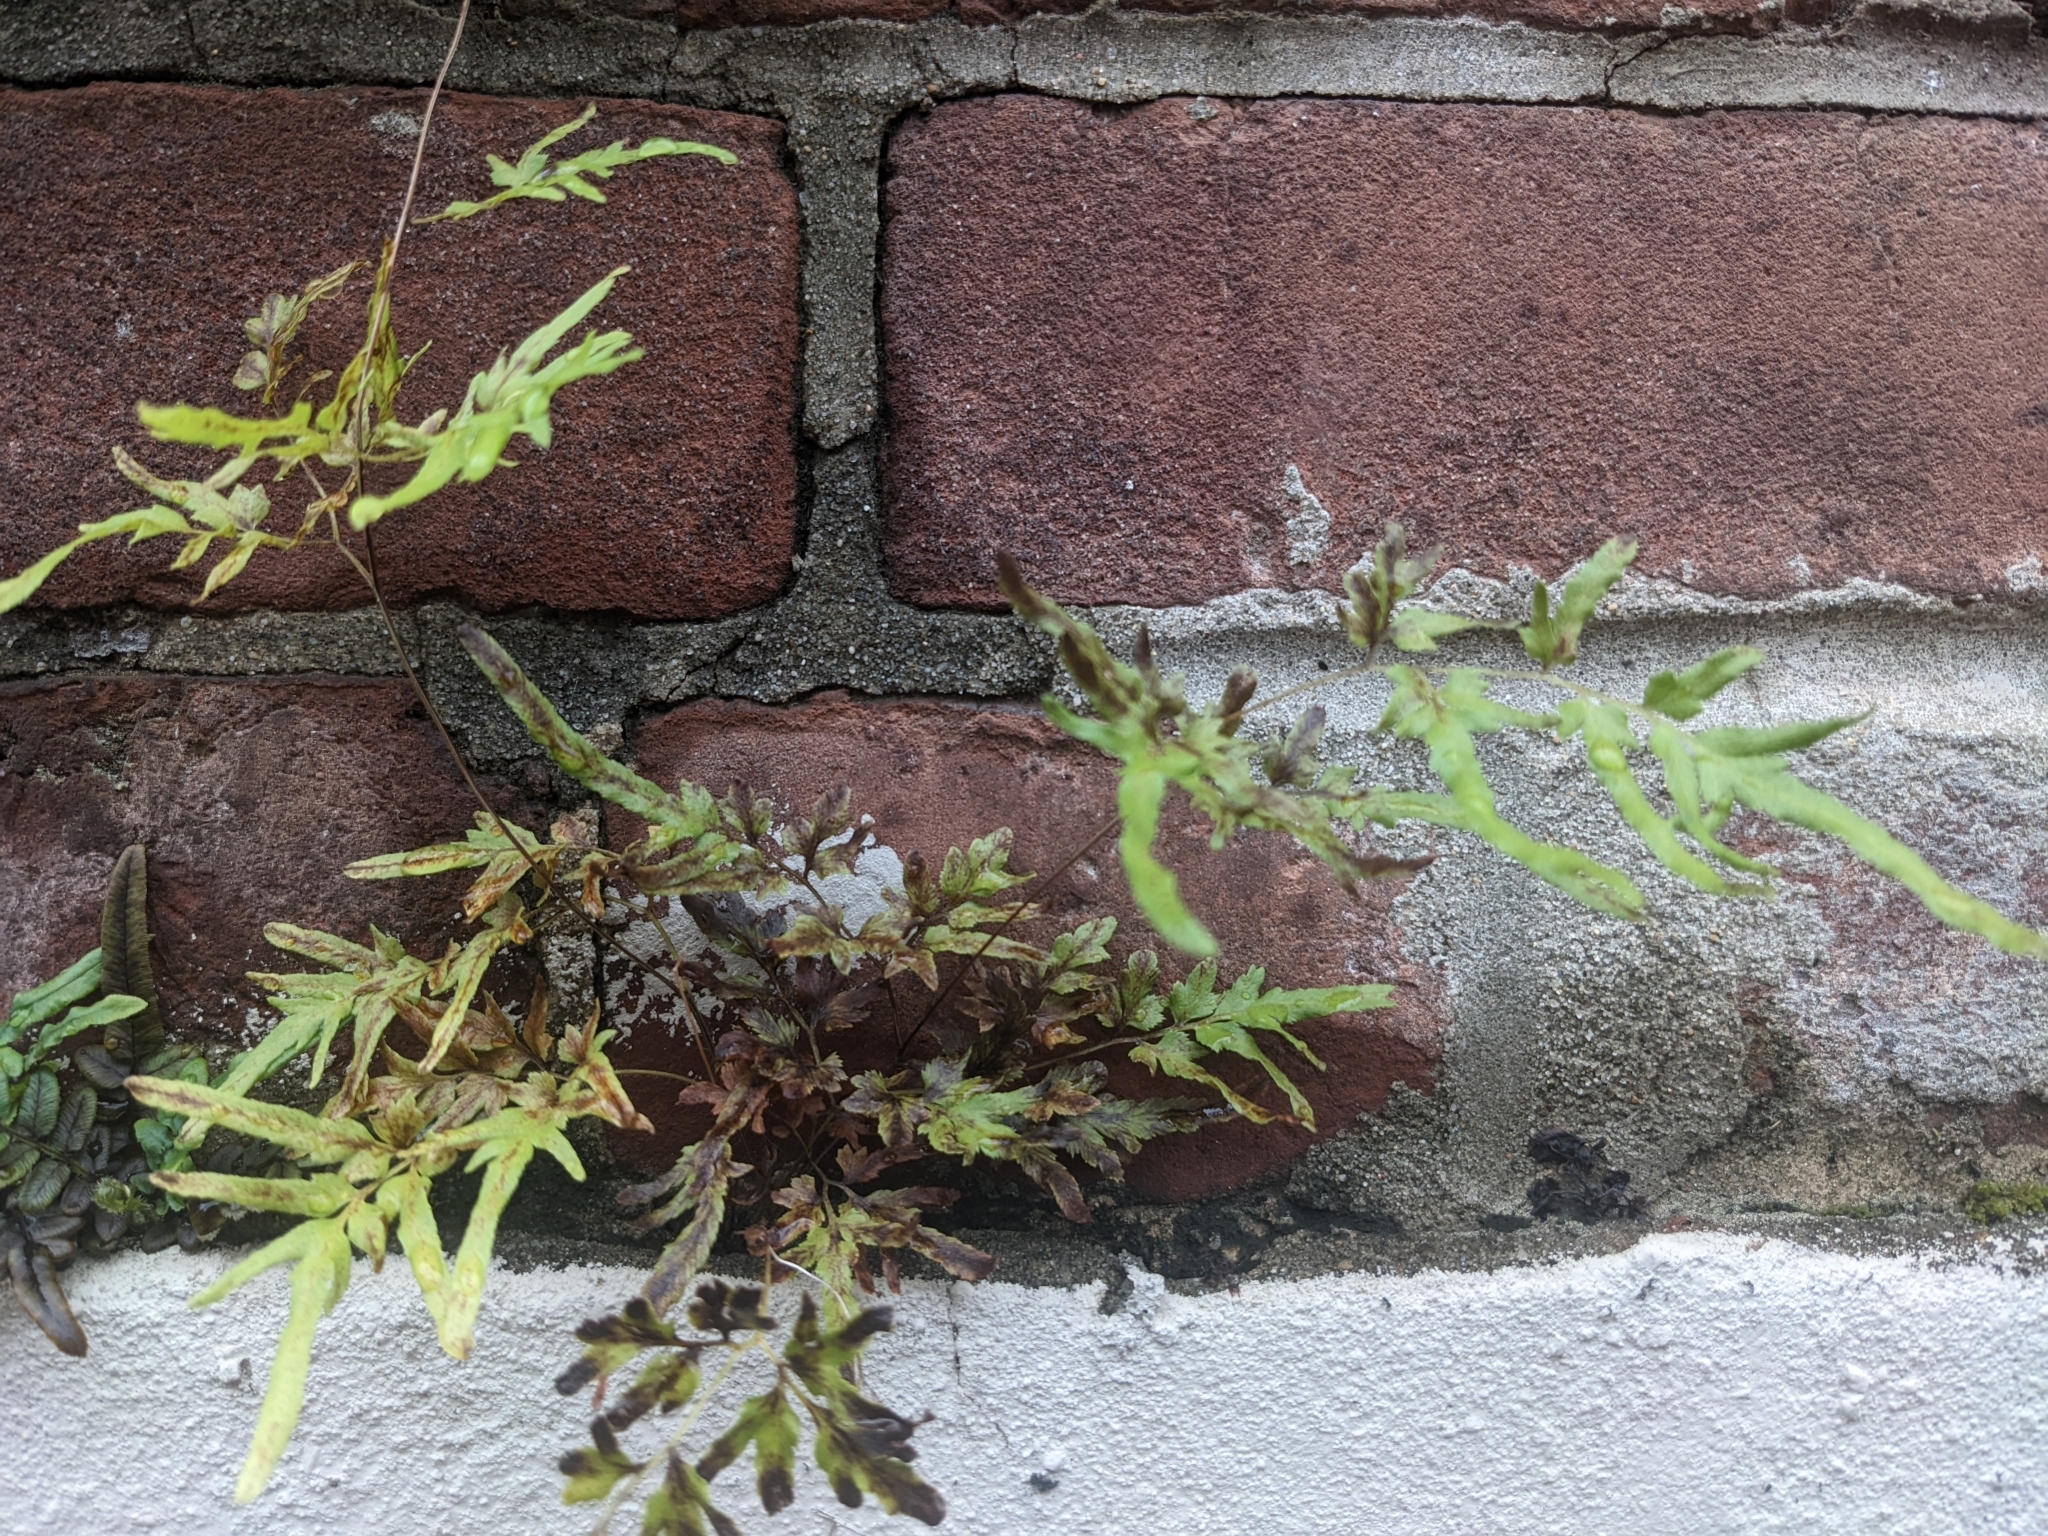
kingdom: Plantae
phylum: Tracheophyta
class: Polypodiopsida
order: Schizaeales
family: Lygodiaceae
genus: Lygodium
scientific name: Lygodium japonicum
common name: Japanese climbing fern
